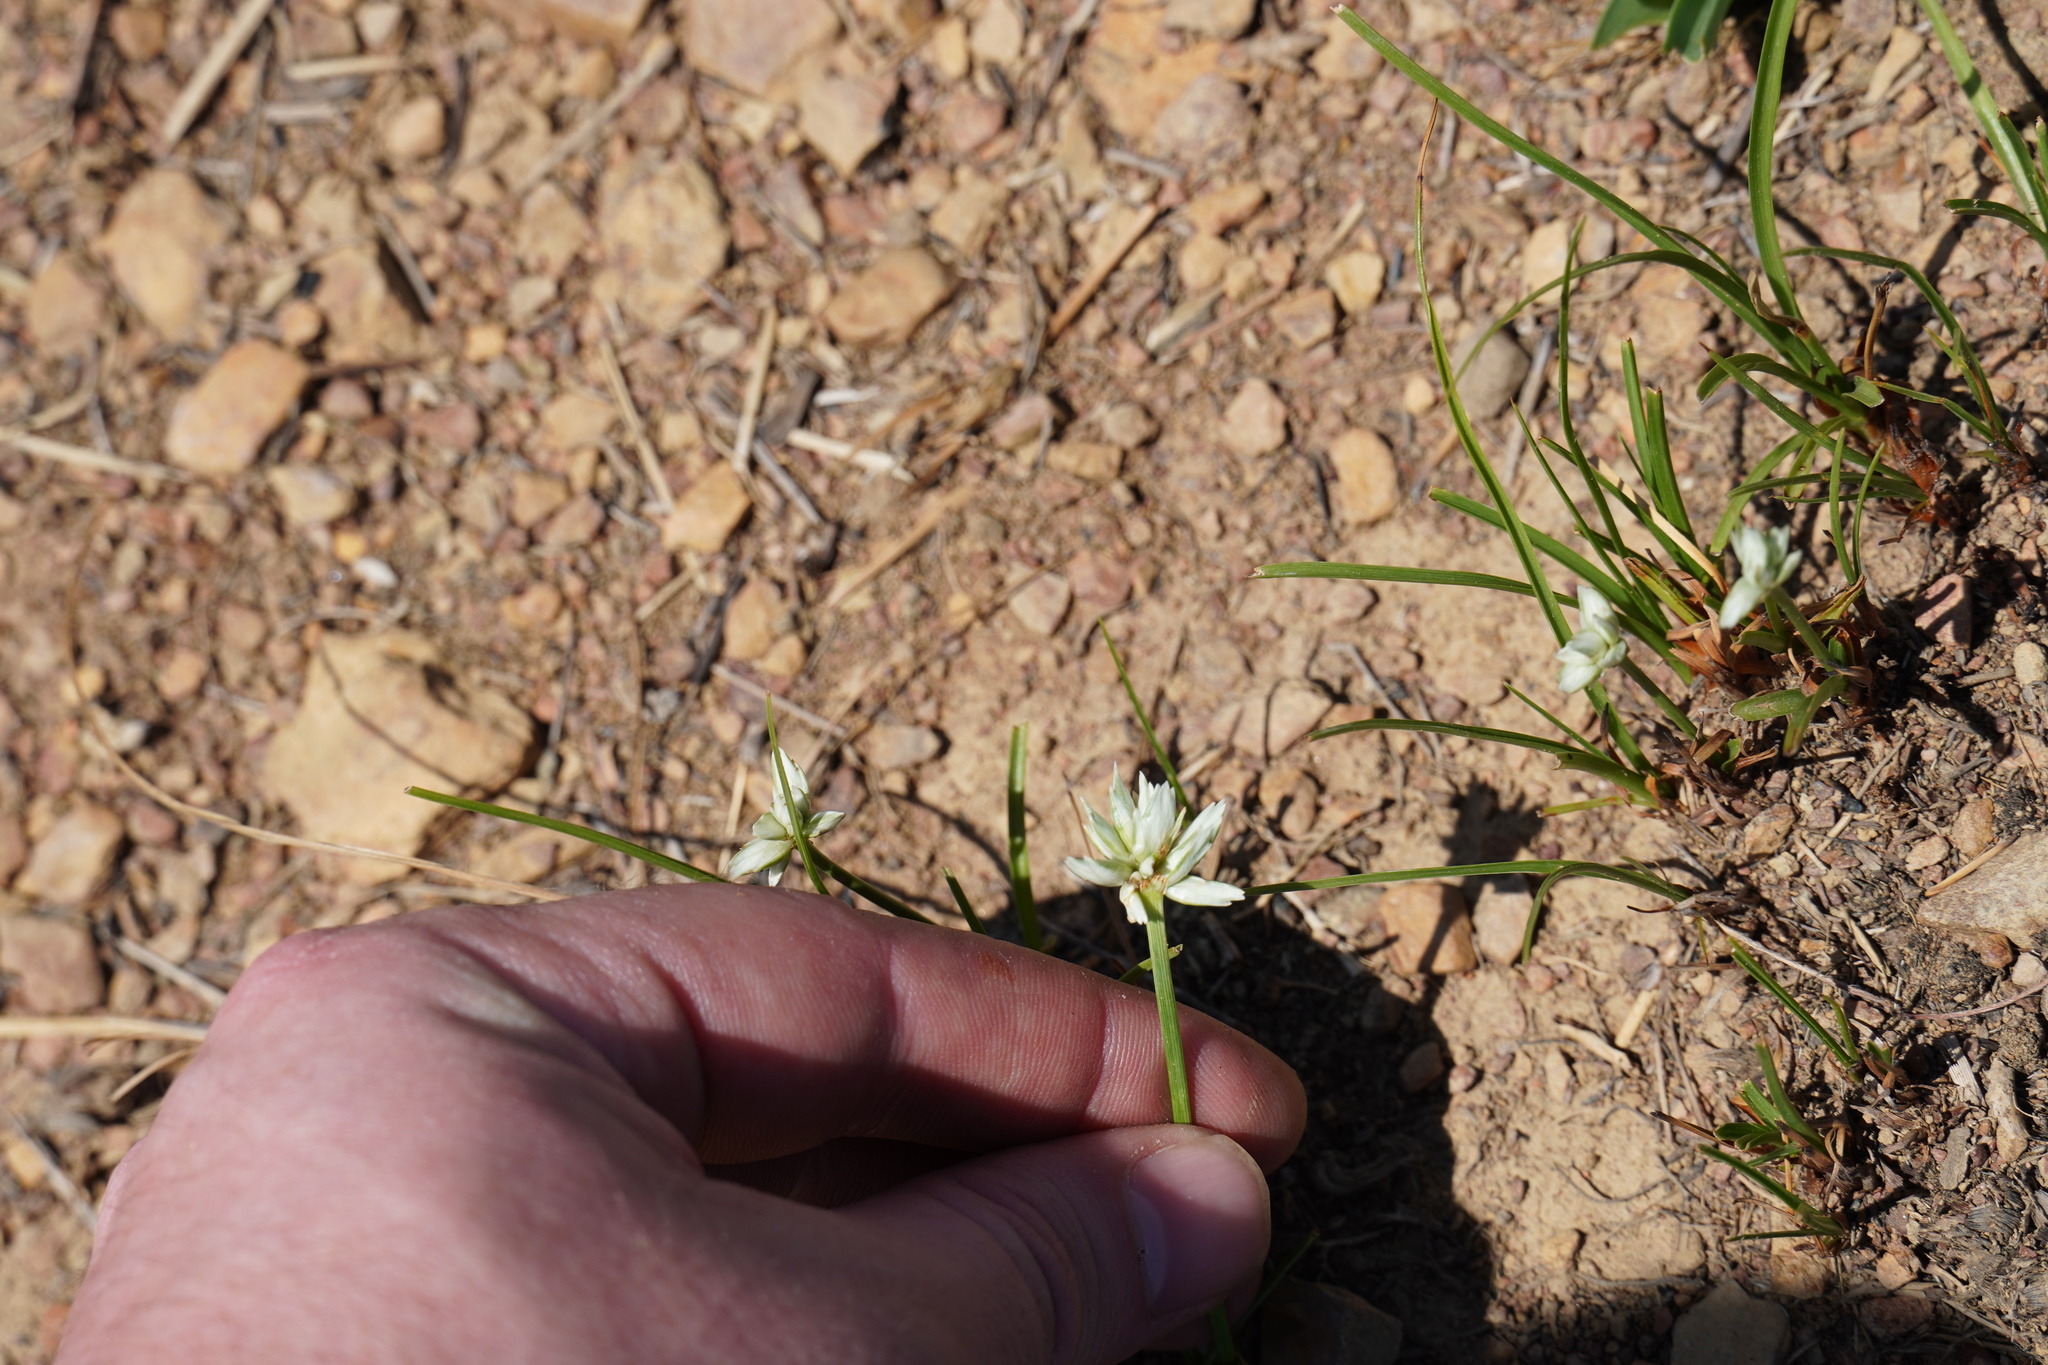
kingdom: Plantae
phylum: Tracheophyta
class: Liliopsida
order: Poales
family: Cyperaceae
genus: Cyperus
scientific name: Cyperus niveus
